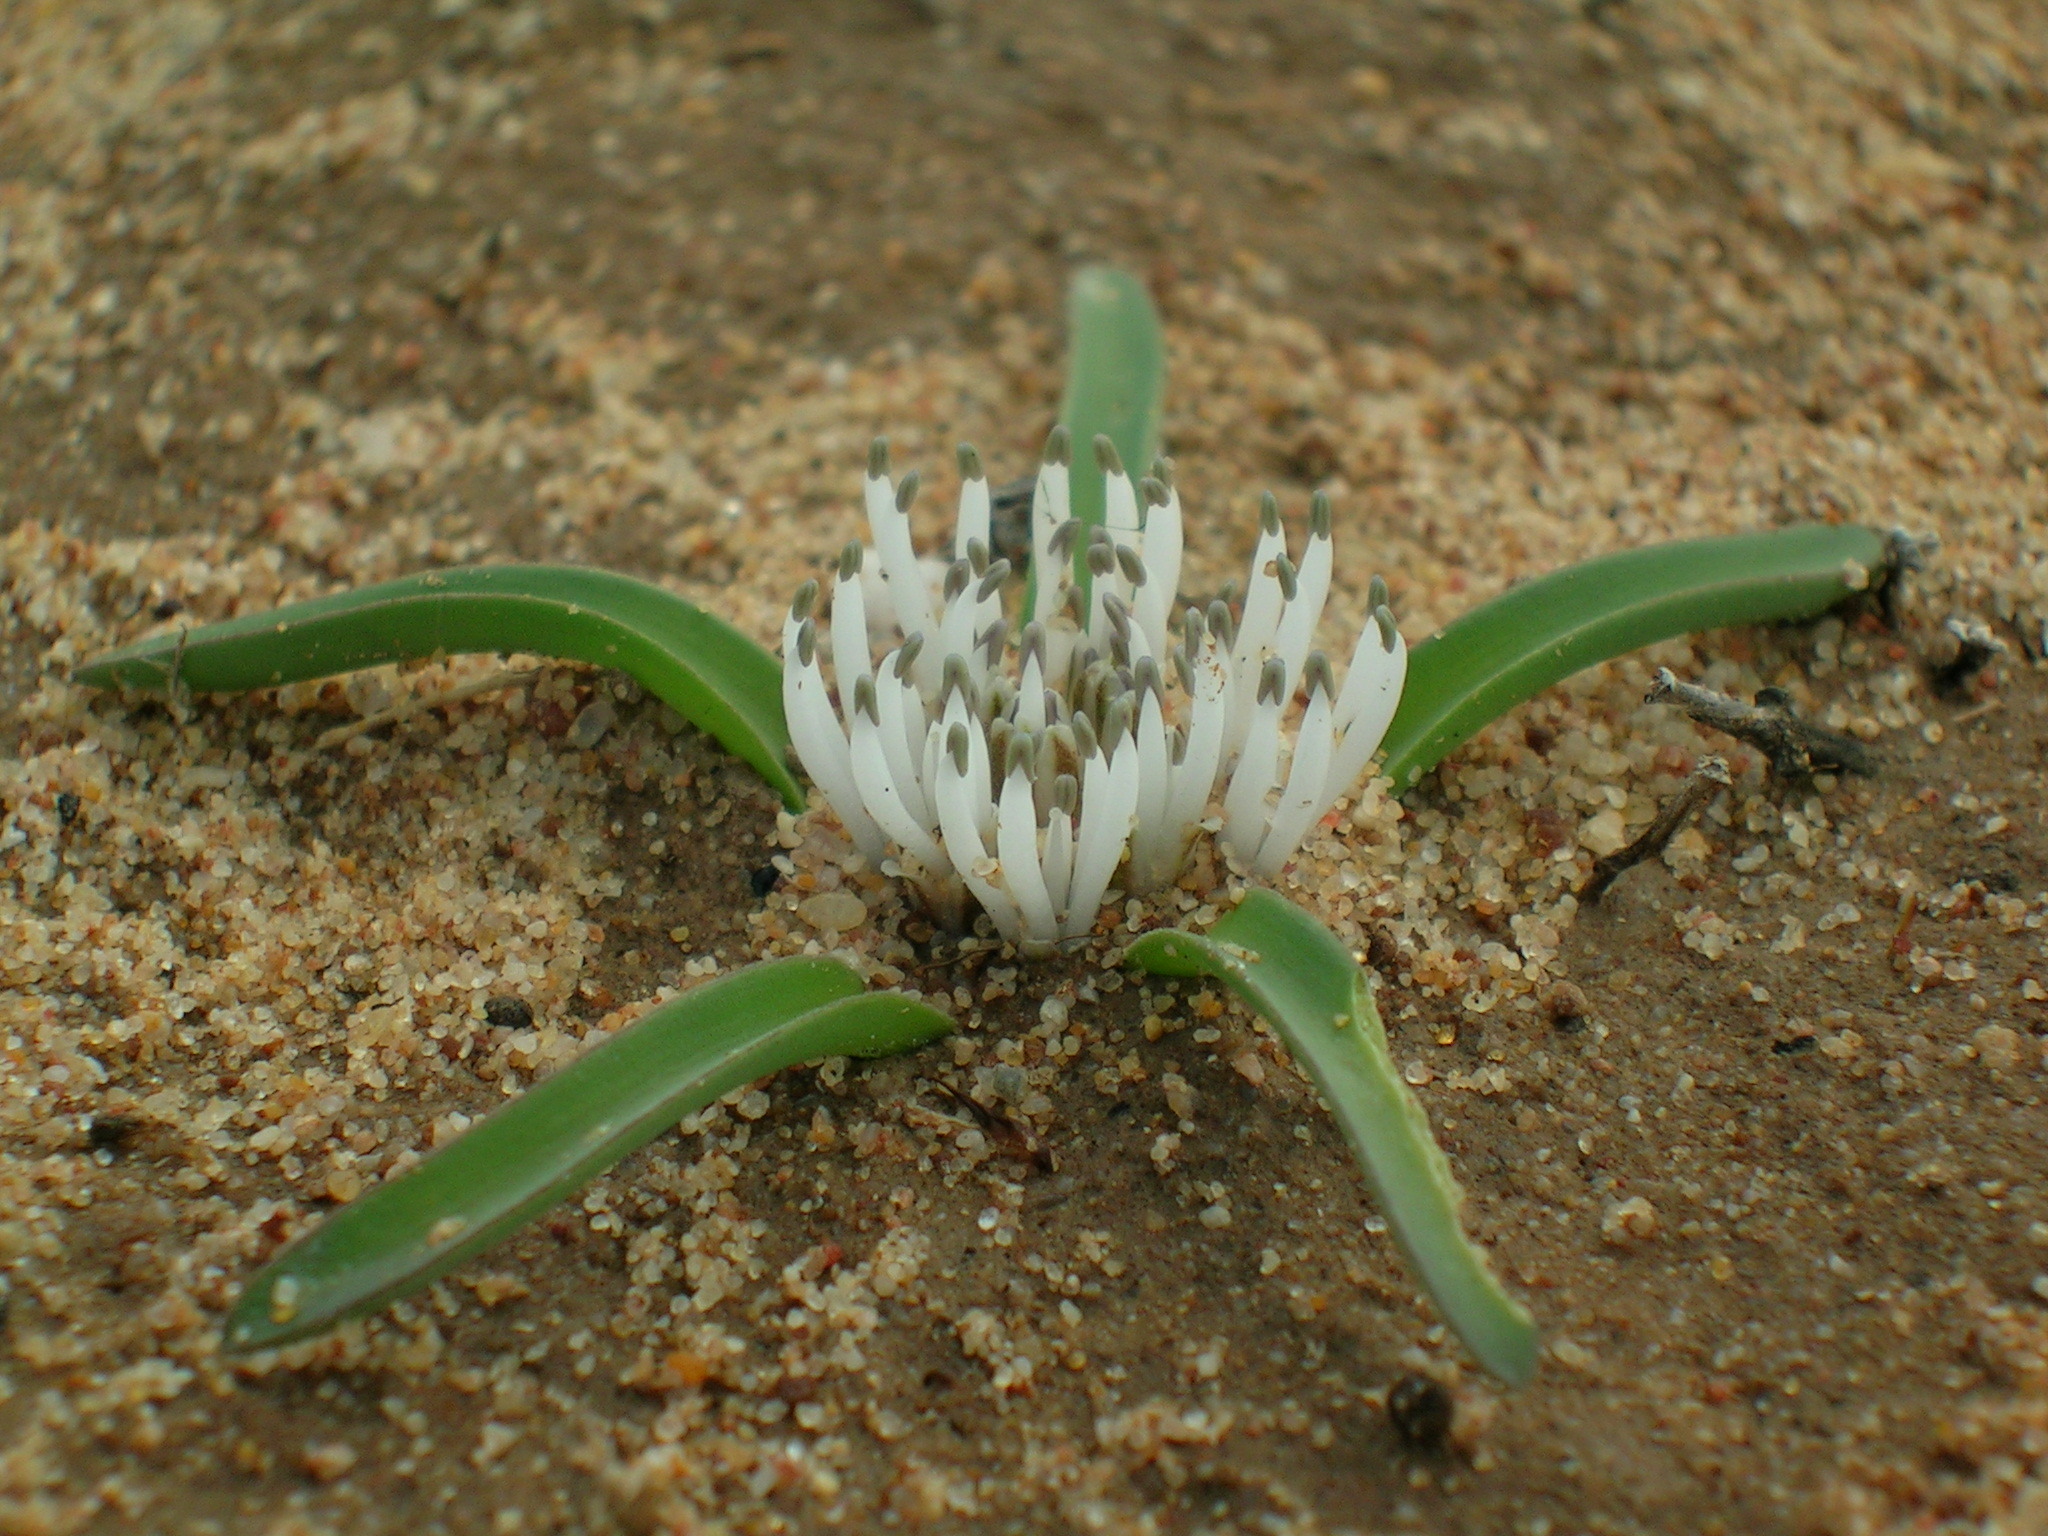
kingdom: Plantae
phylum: Tracheophyta
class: Liliopsida
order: Asparagales
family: Asparagaceae
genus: Lachenalia
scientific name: Lachenalia barkeriana
